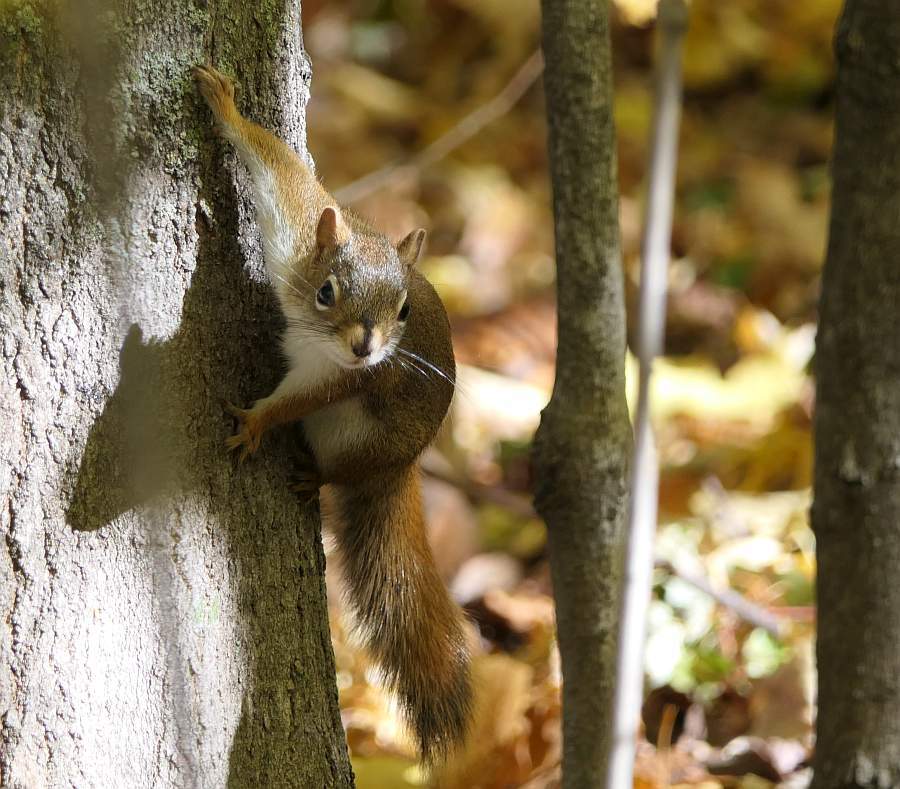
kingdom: Animalia
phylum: Chordata
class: Mammalia
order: Rodentia
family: Sciuridae
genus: Tamiasciurus
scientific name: Tamiasciurus hudsonicus
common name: Red squirrel
